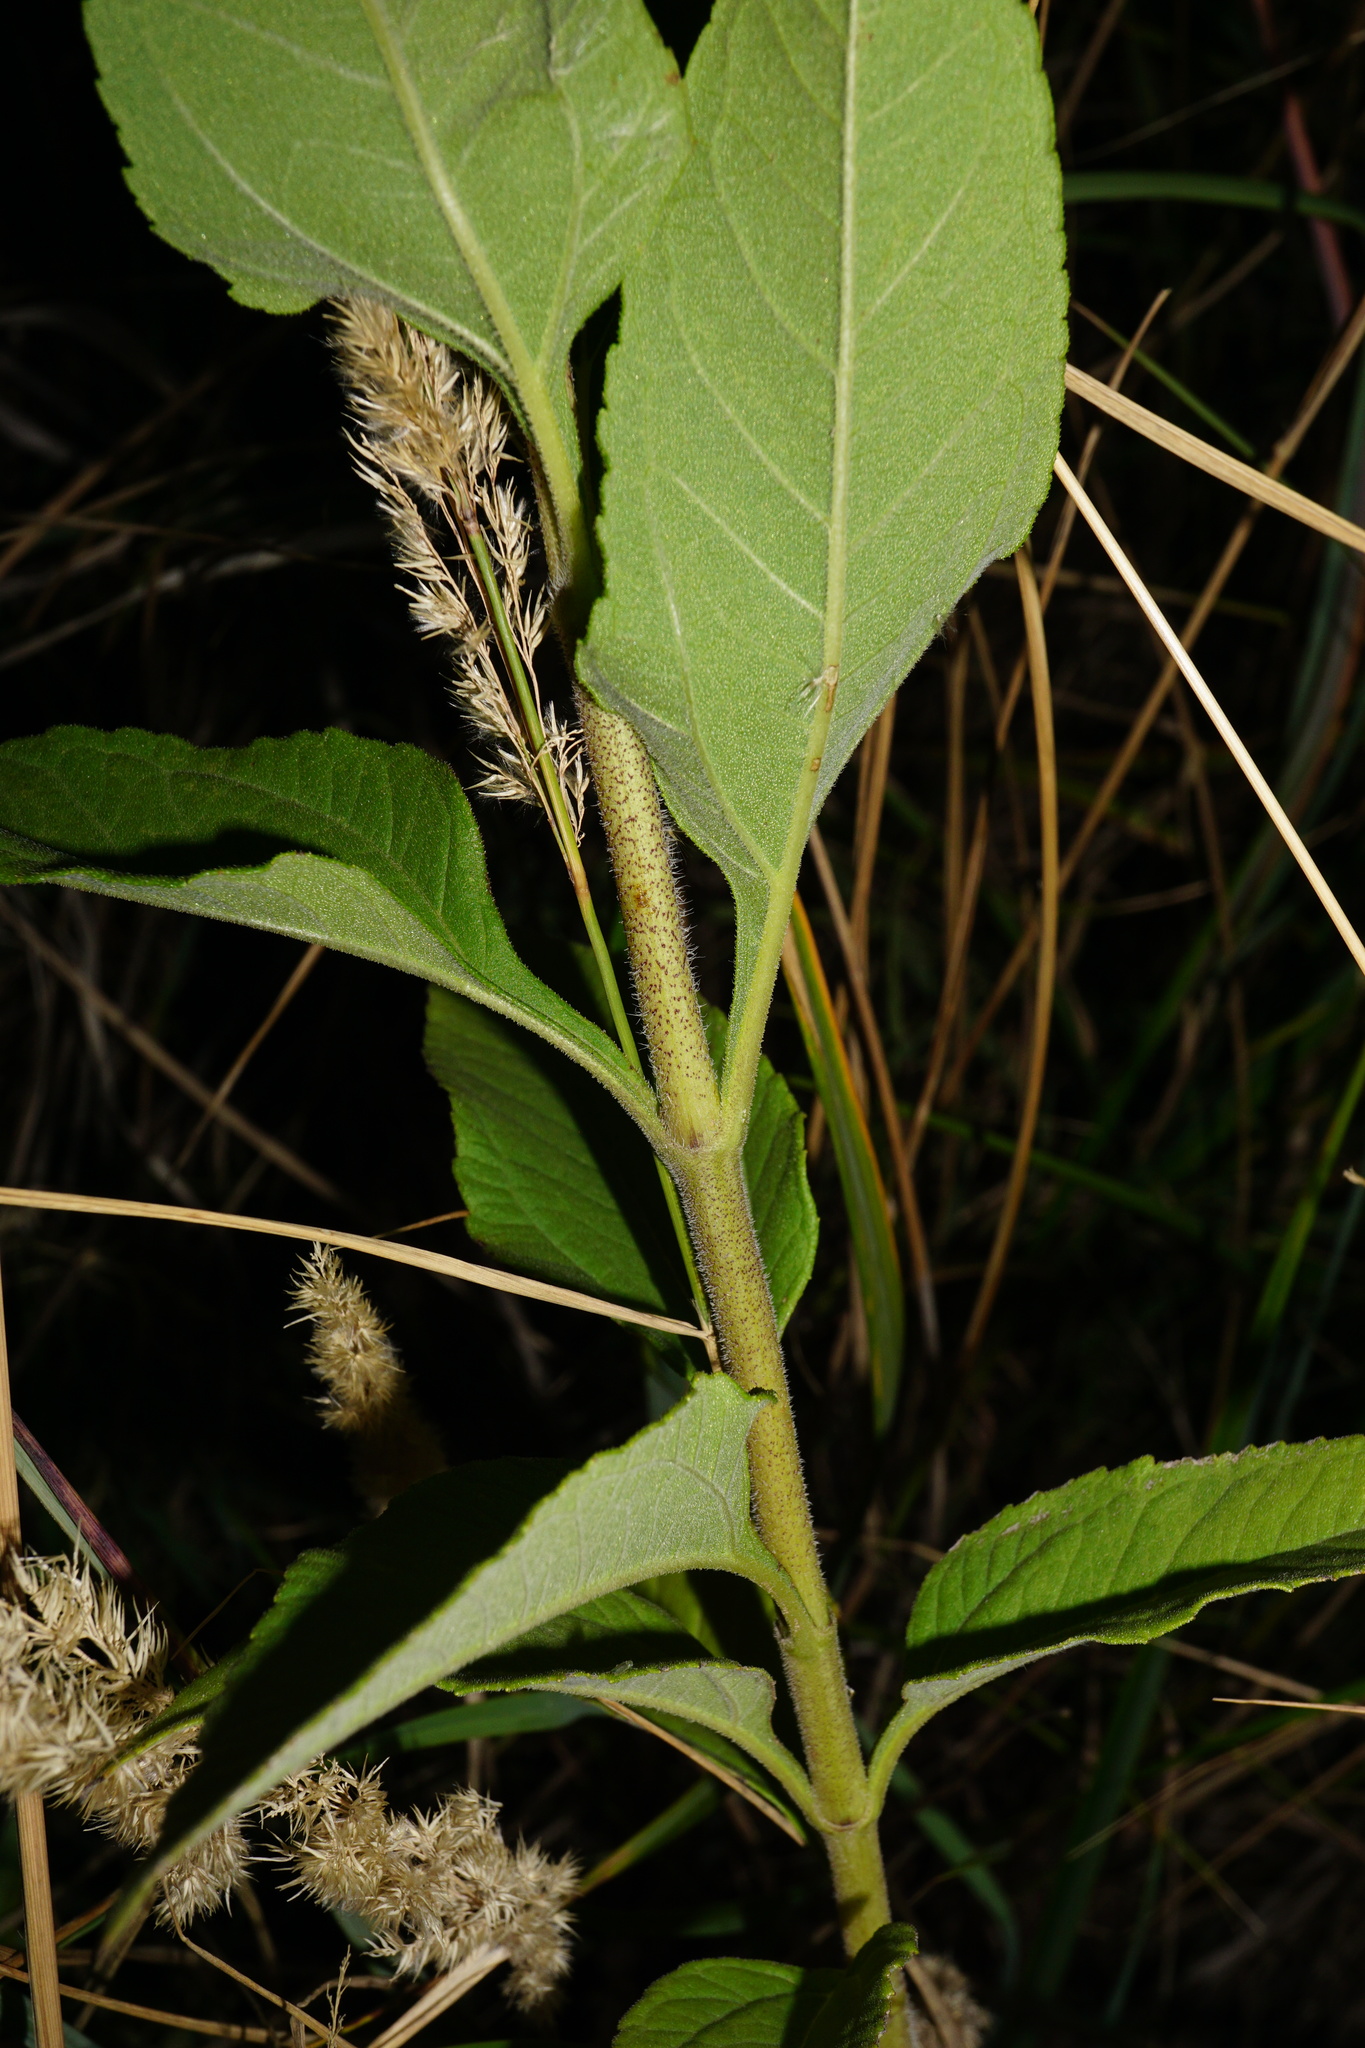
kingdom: Plantae
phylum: Tracheophyta
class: Magnoliopsida
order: Asterales
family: Asteraceae
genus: Helianthus
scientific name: Helianthus tuberosus
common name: Jerusalem artichoke
